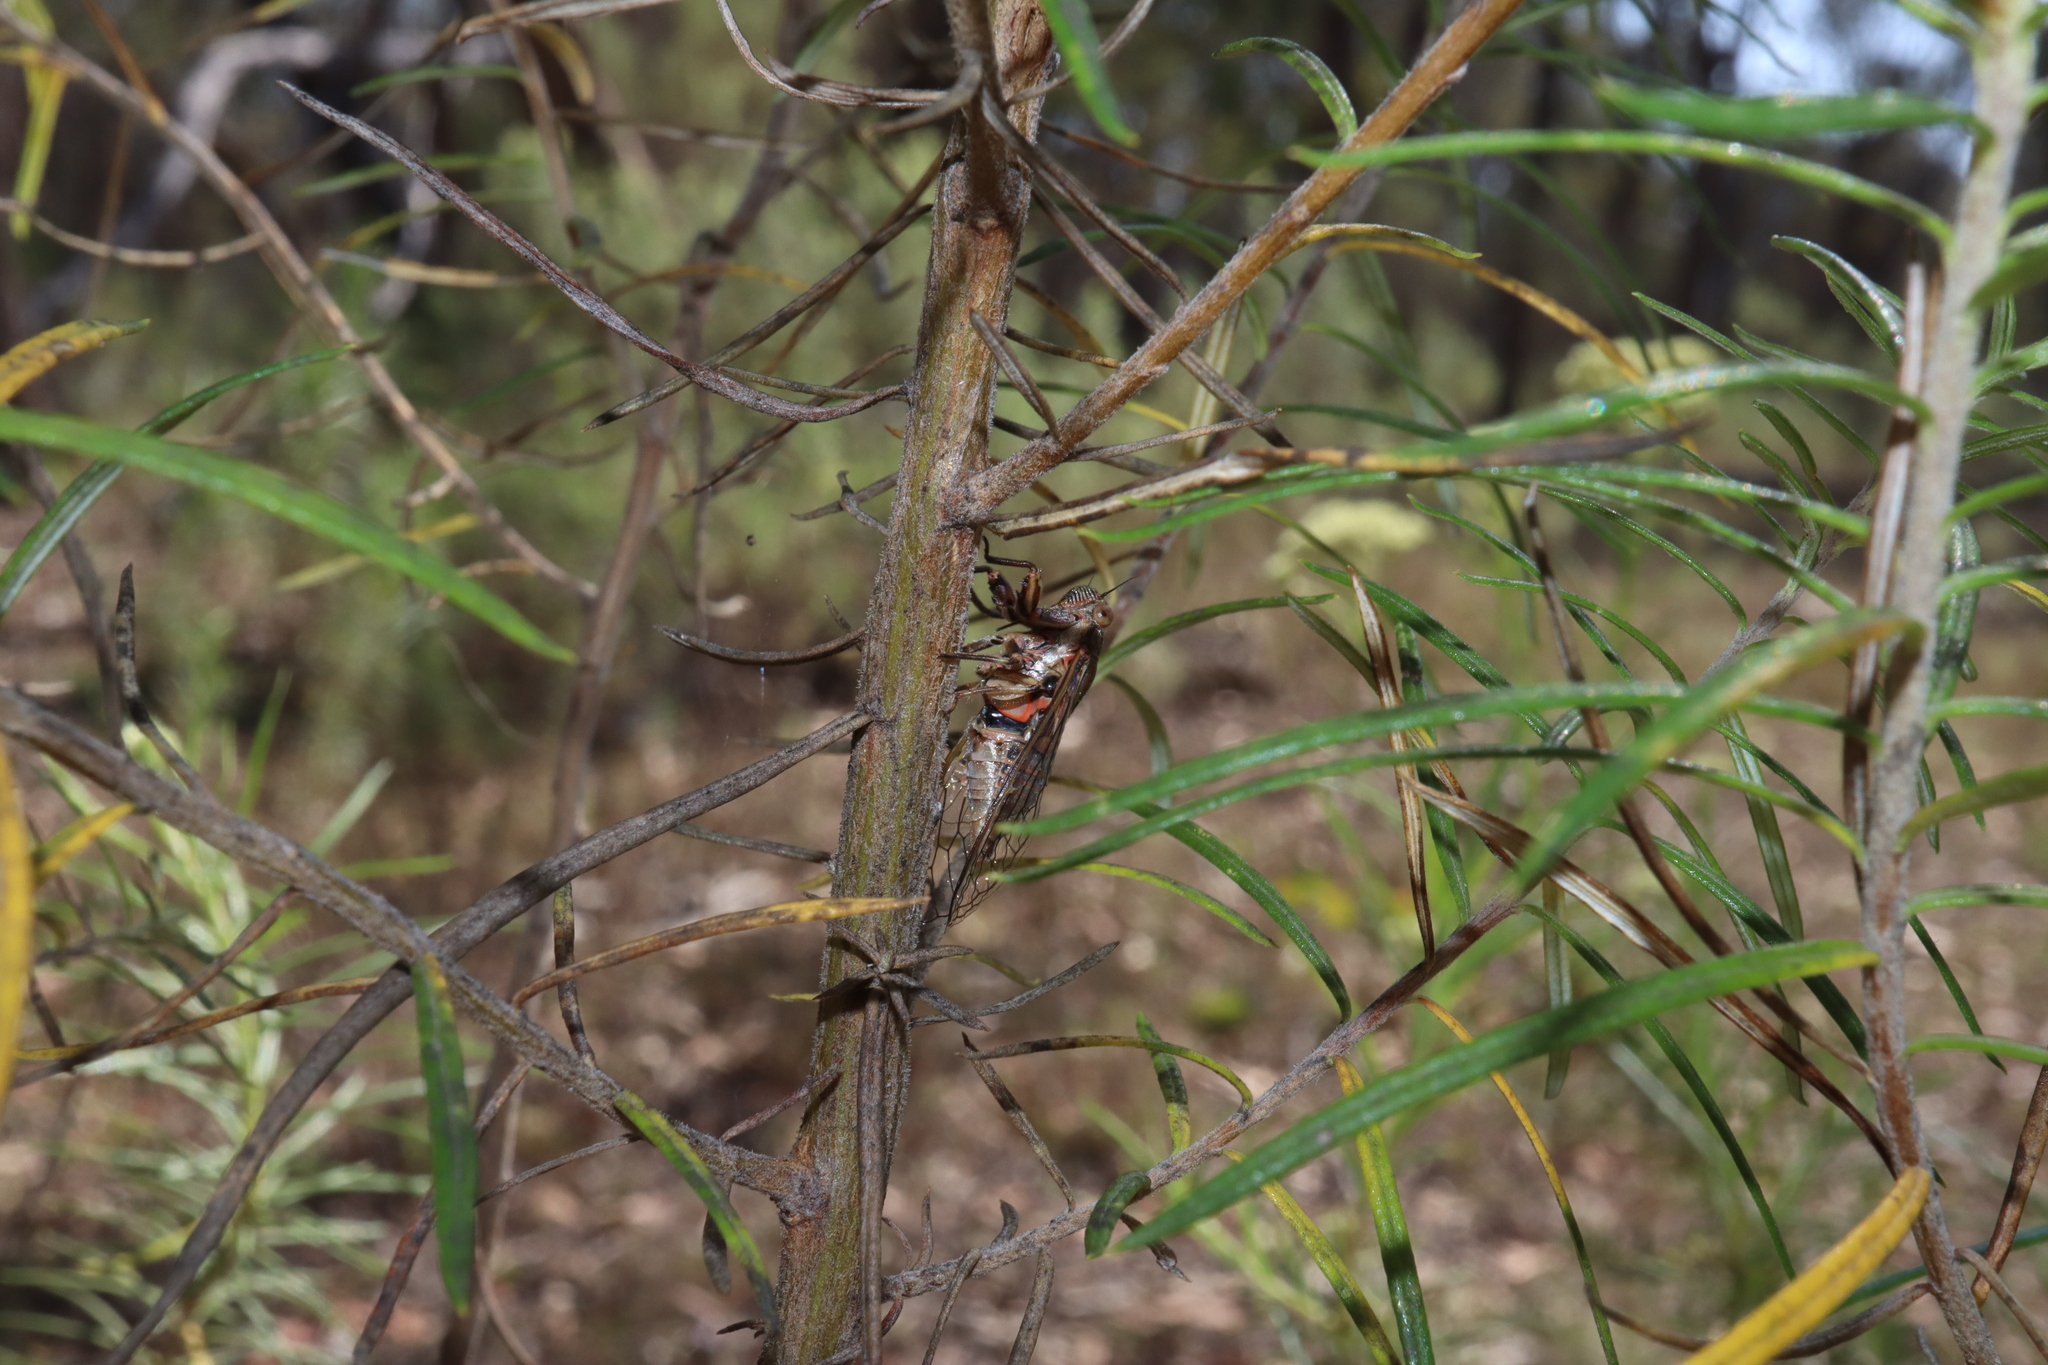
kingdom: Animalia
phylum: Arthropoda
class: Insecta
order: Hemiptera
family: Cicadidae
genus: Chelapsalta
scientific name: Chelapsalta puer
